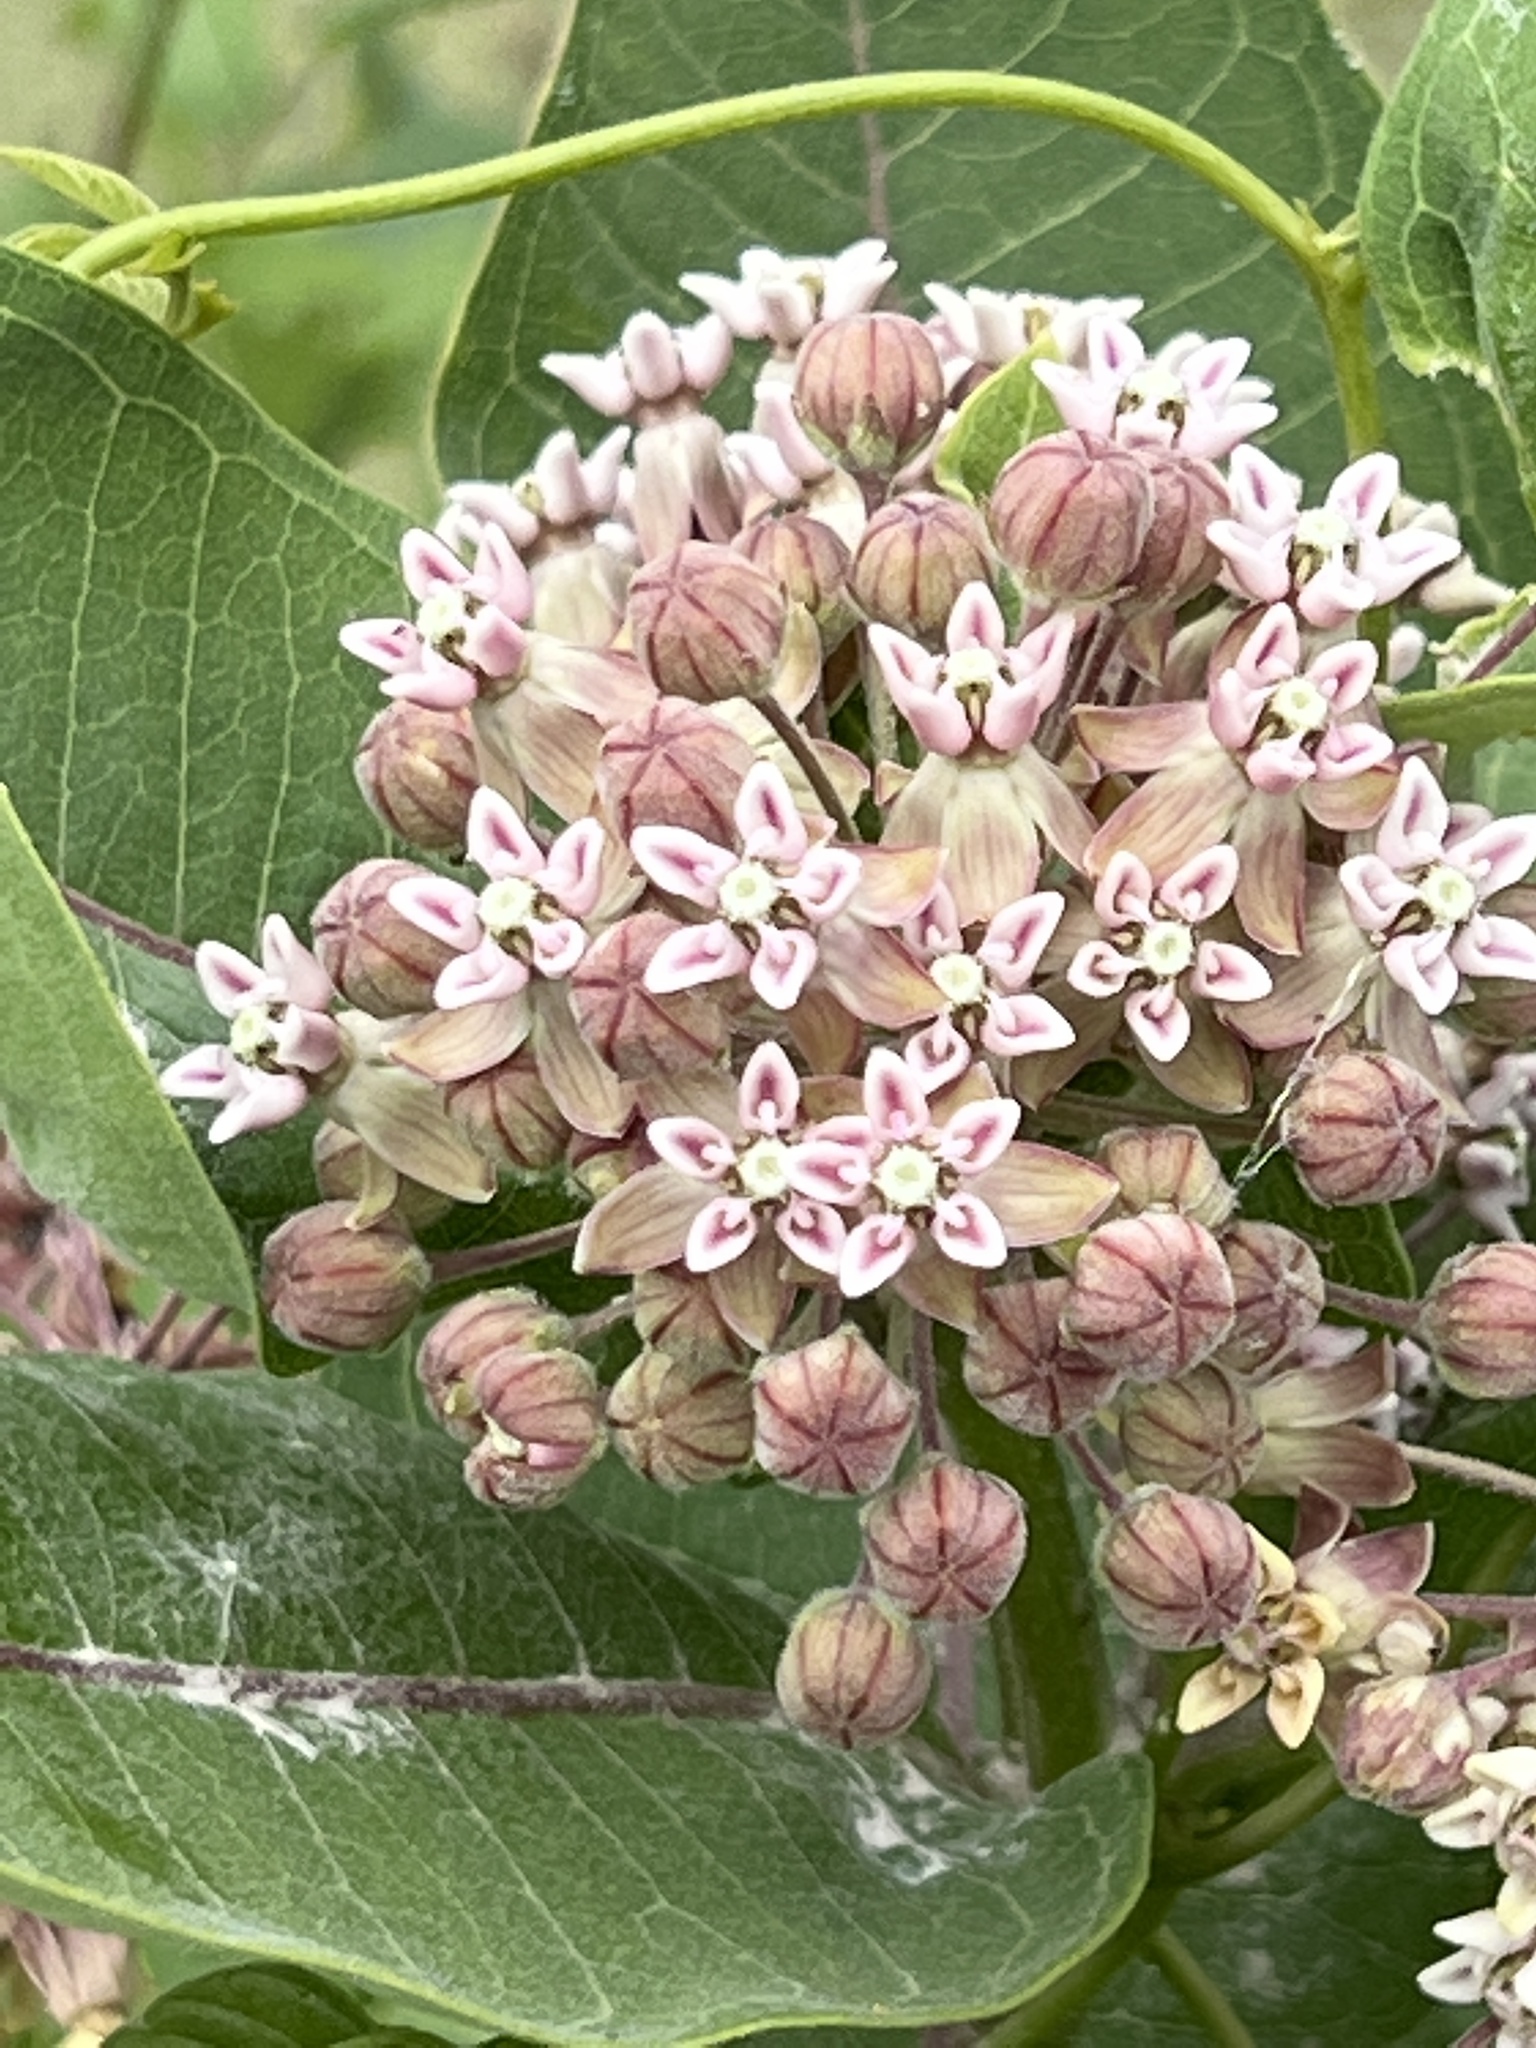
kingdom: Plantae
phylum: Tracheophyta
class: Magnoliopsida
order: Gentianales
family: Apocynaceae
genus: Asclepias
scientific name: Asclepias syriaca
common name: Common milkweed
